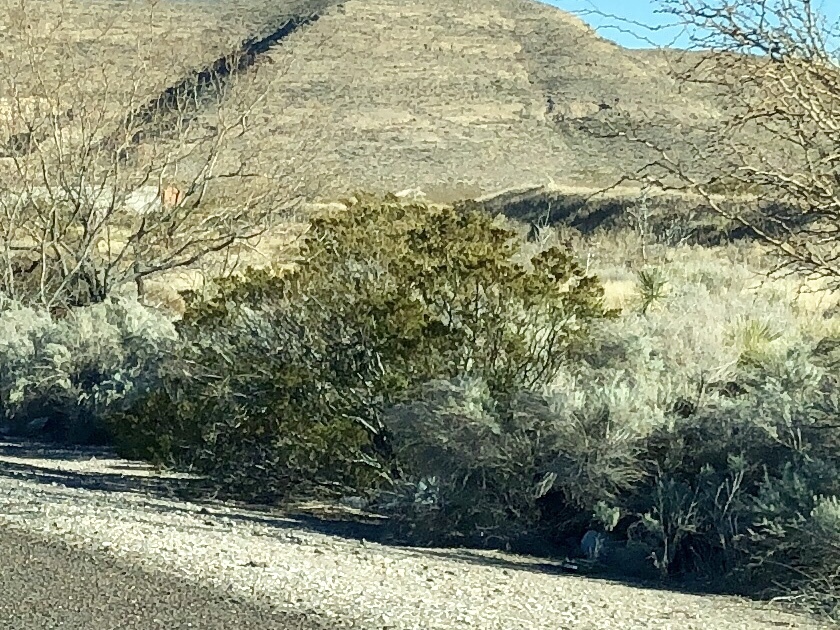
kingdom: Plantae
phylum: Tracheophyta
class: Magnoliopsida
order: Zygophyllales
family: Zygophyllaceae
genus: Larrea
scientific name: Larrea tridentata
